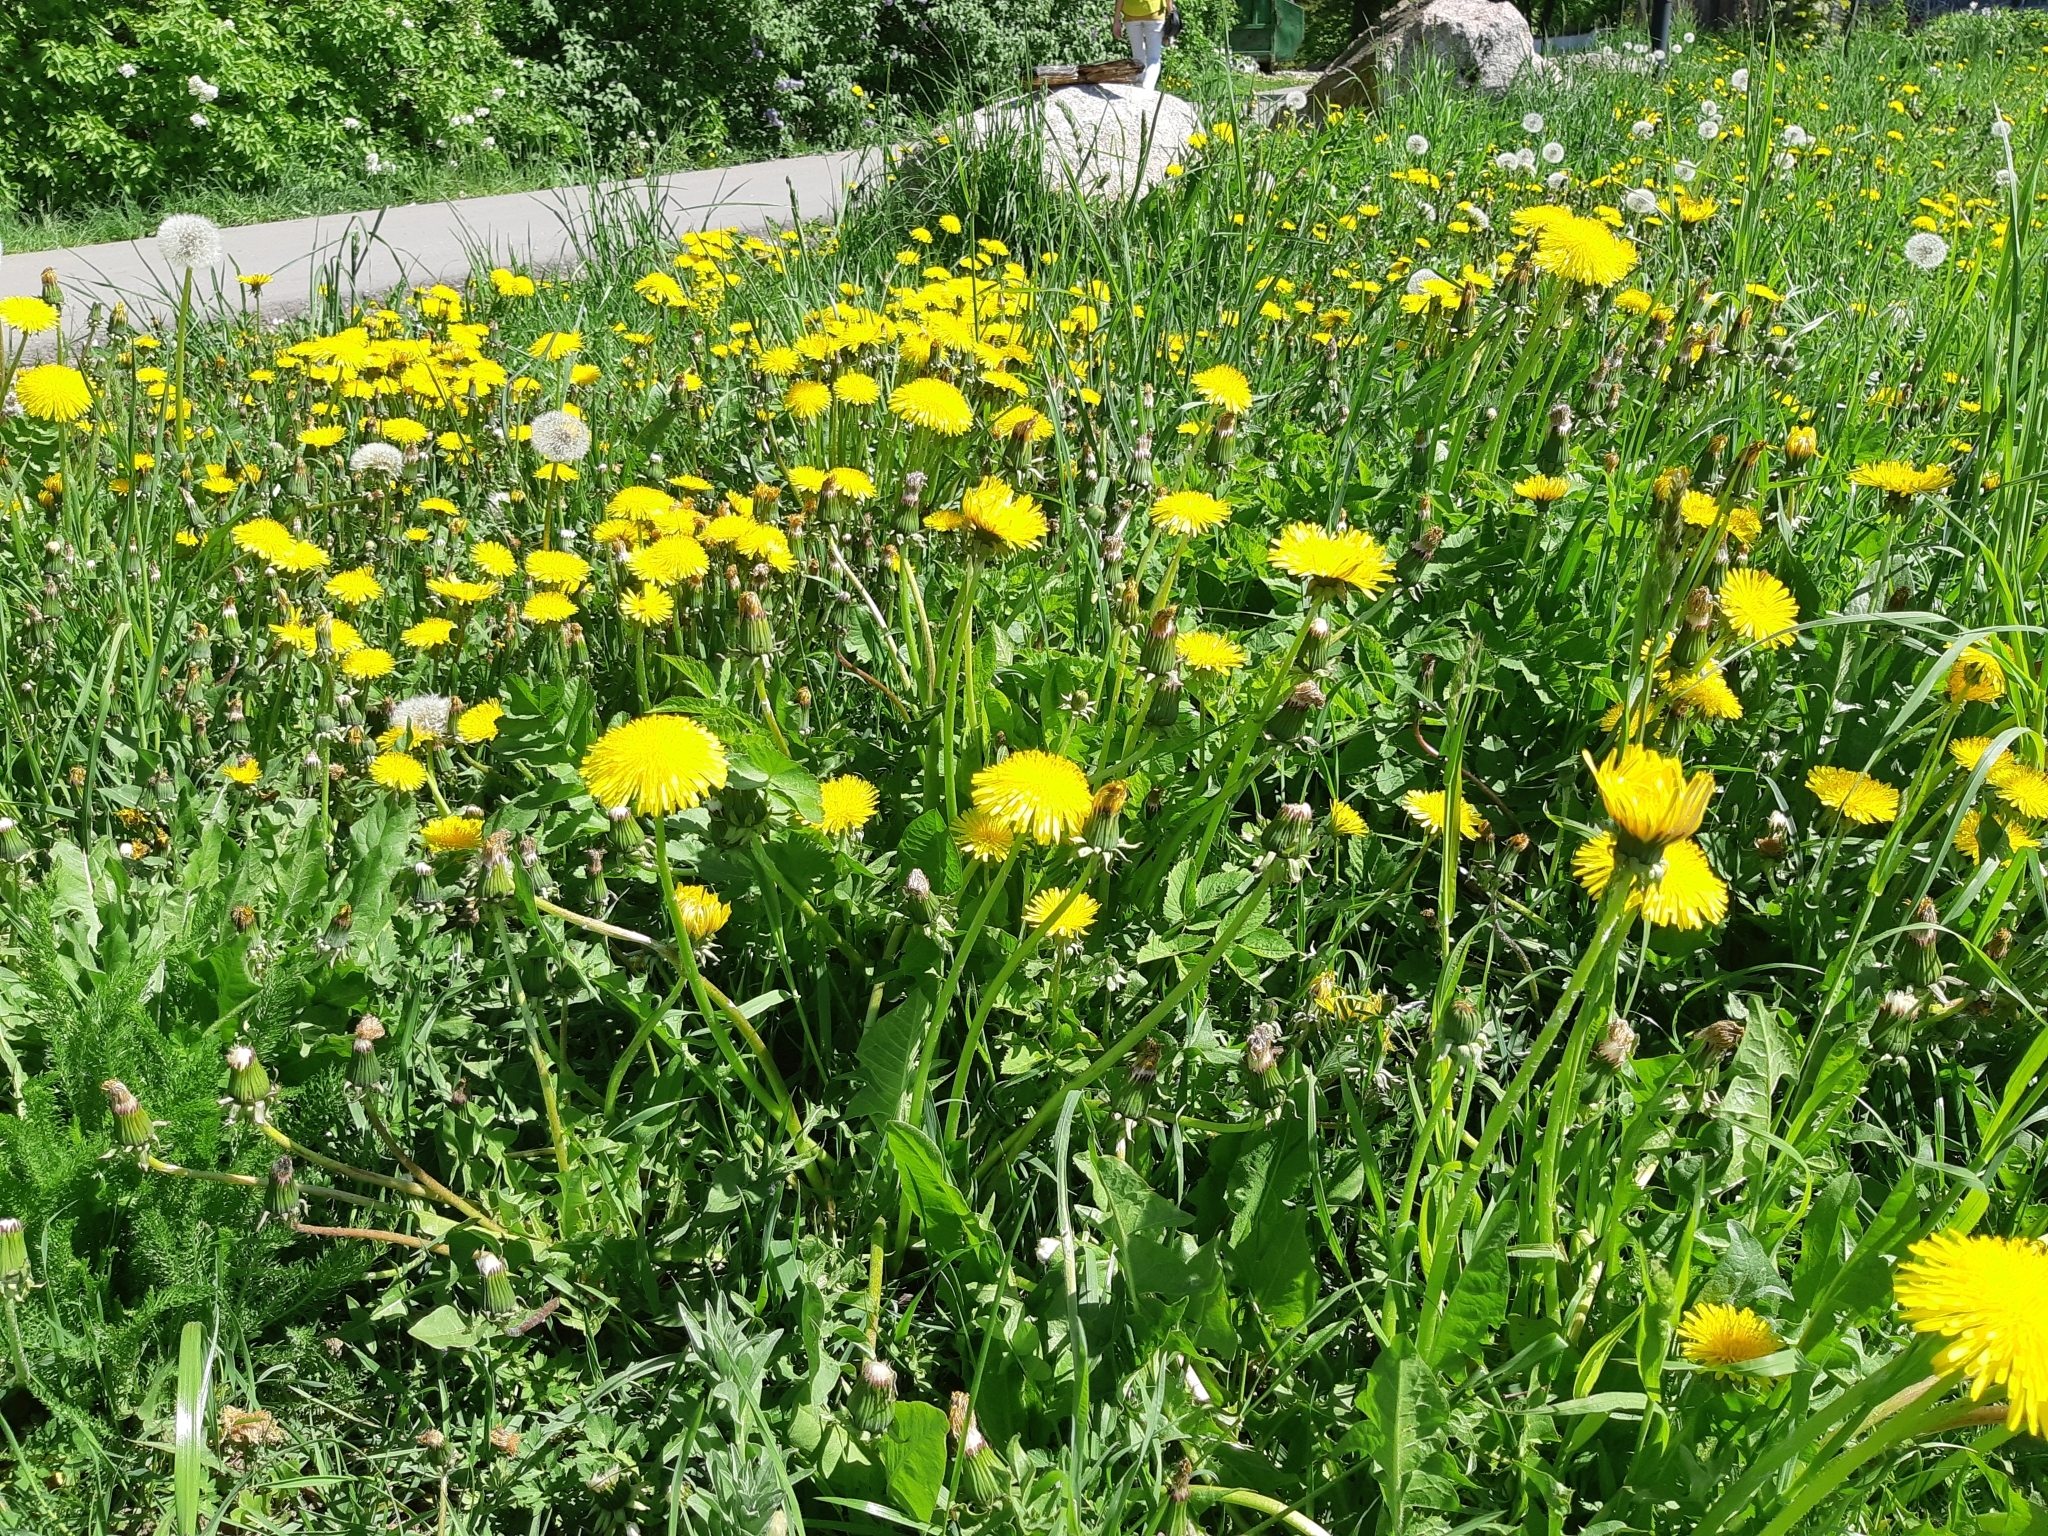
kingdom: Plantae
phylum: Tracheophyta
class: Magnoliopsida
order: Asterales
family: Asteraceae
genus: Taraxacum
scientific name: Taraxacum officinale
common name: Common dandelion
